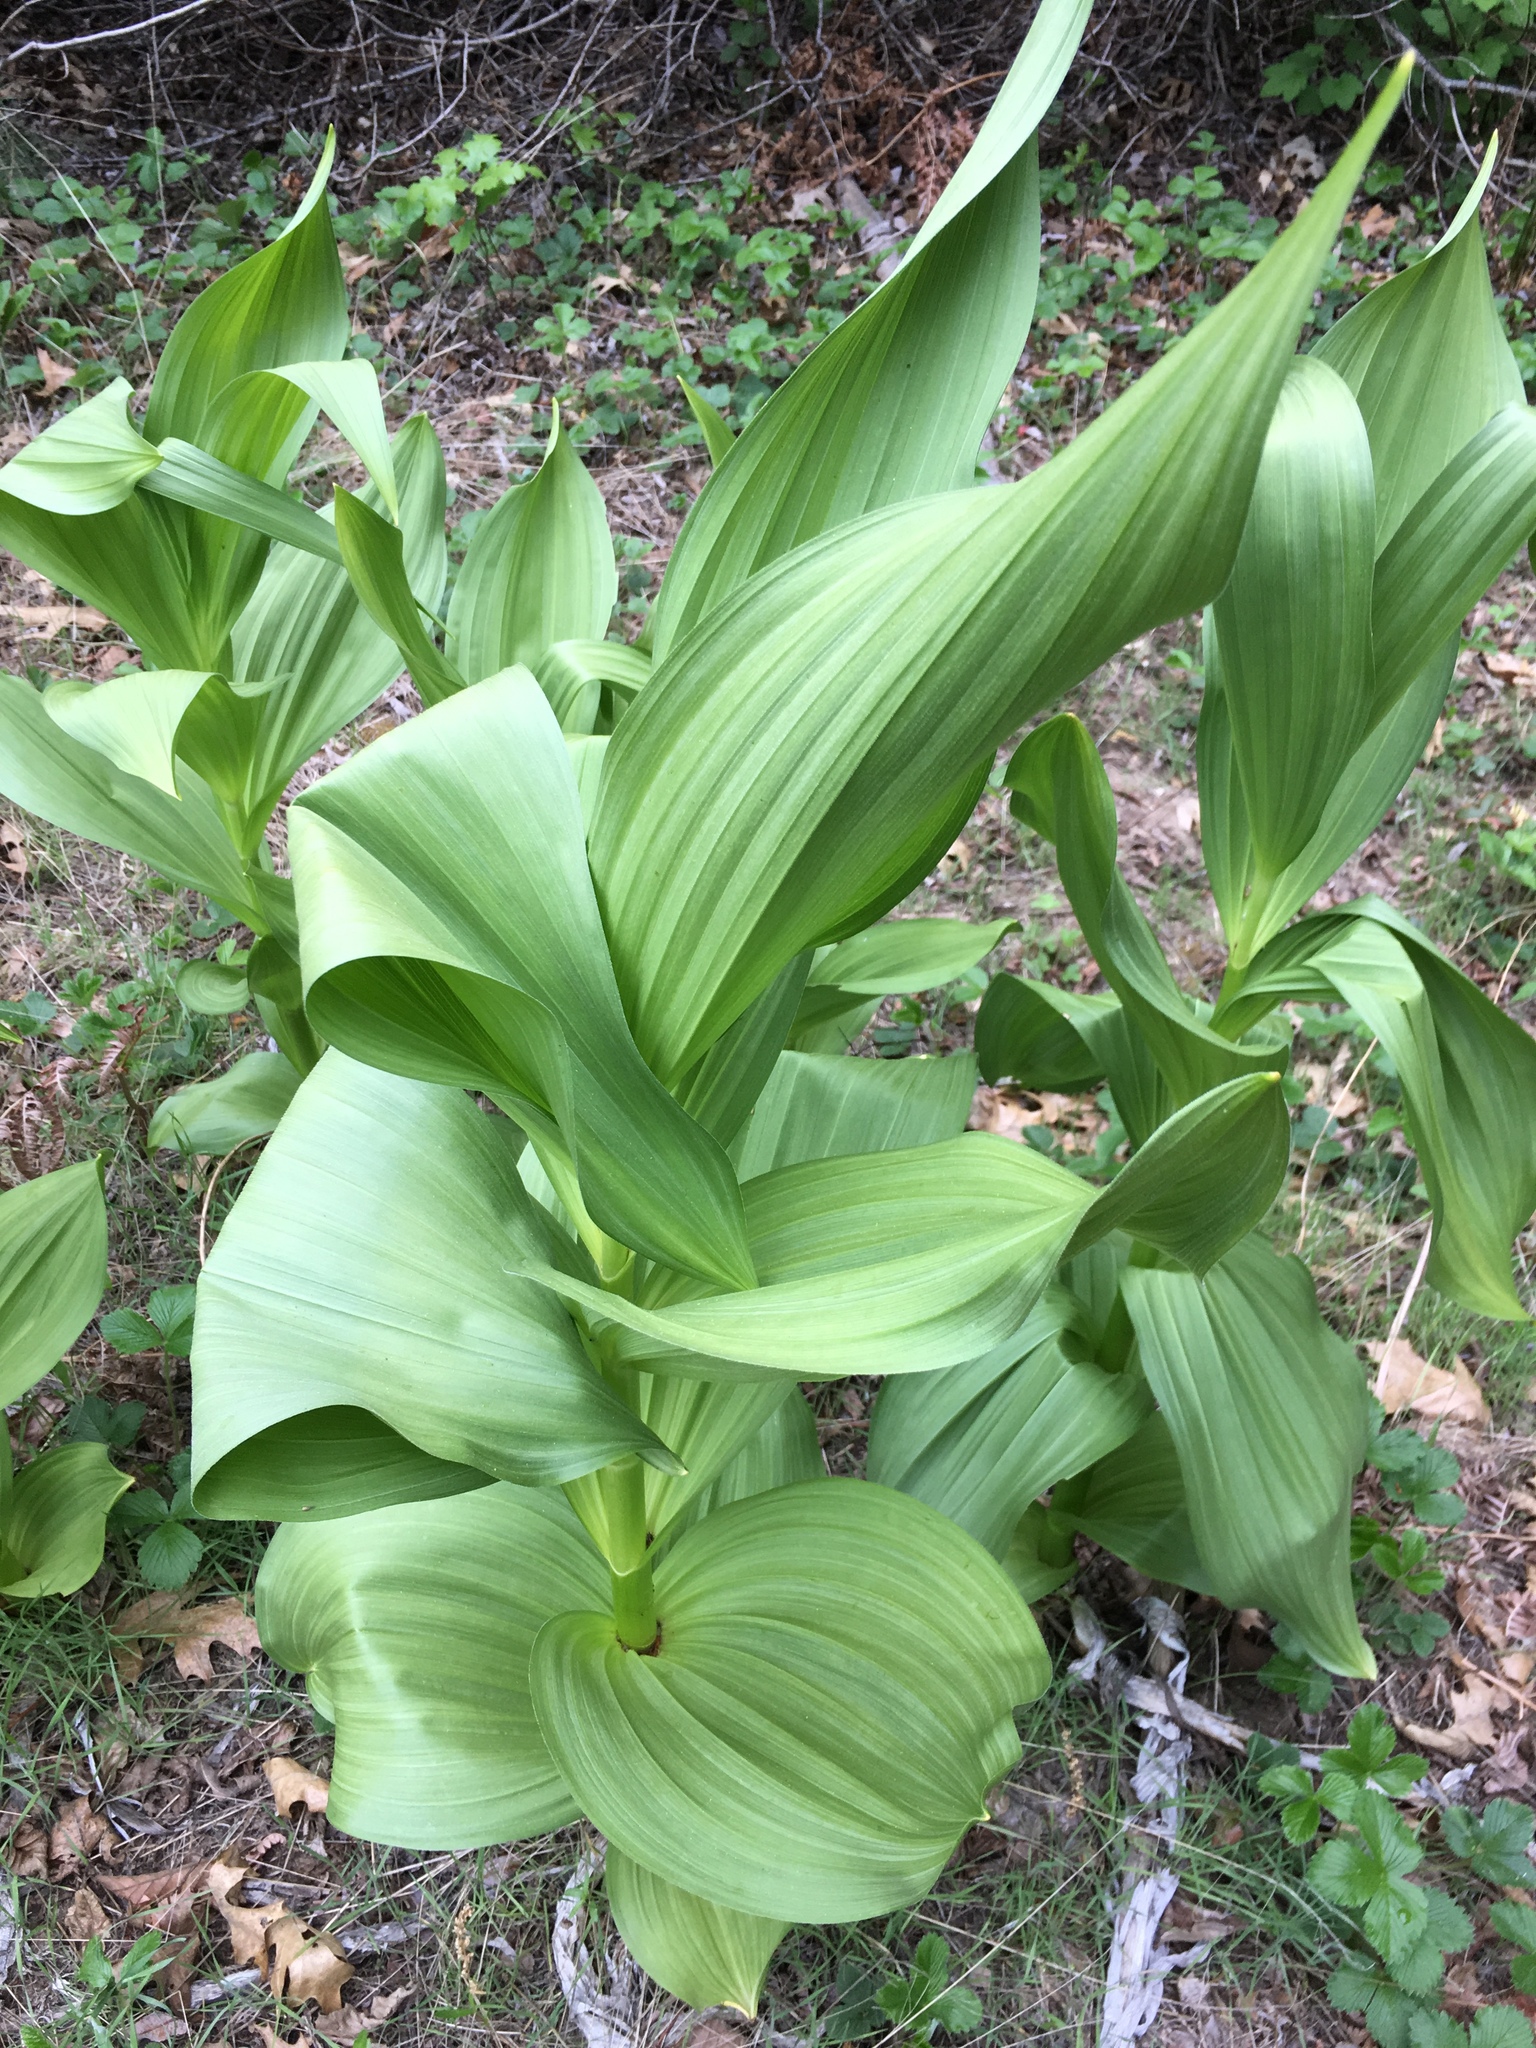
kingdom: Plantae
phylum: Tracheophyta
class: Liliopsida
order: Liliales
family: Melanthiaceae
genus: Veratrum
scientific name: Veratrum californicum
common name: California veratrum
